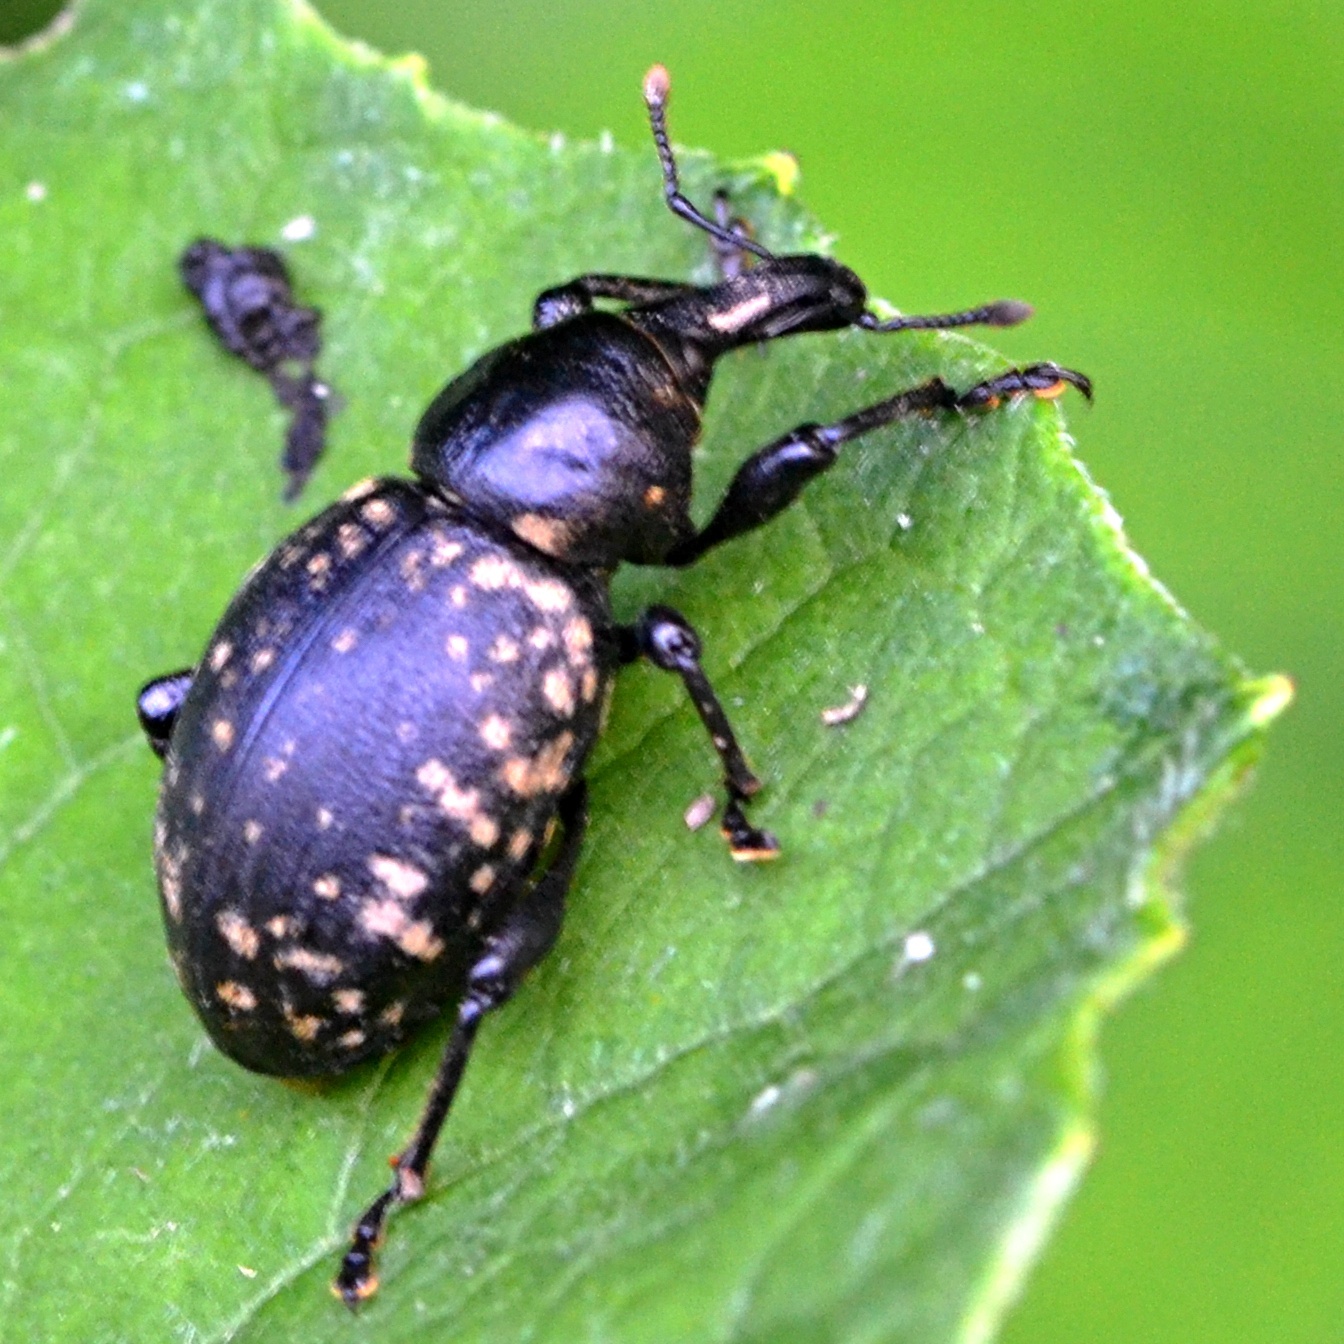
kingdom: Animalia
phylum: Arthropoda
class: Insecta
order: Coleoptera
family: Curculionidae
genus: Liparus
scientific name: Liparus glabrirostris
